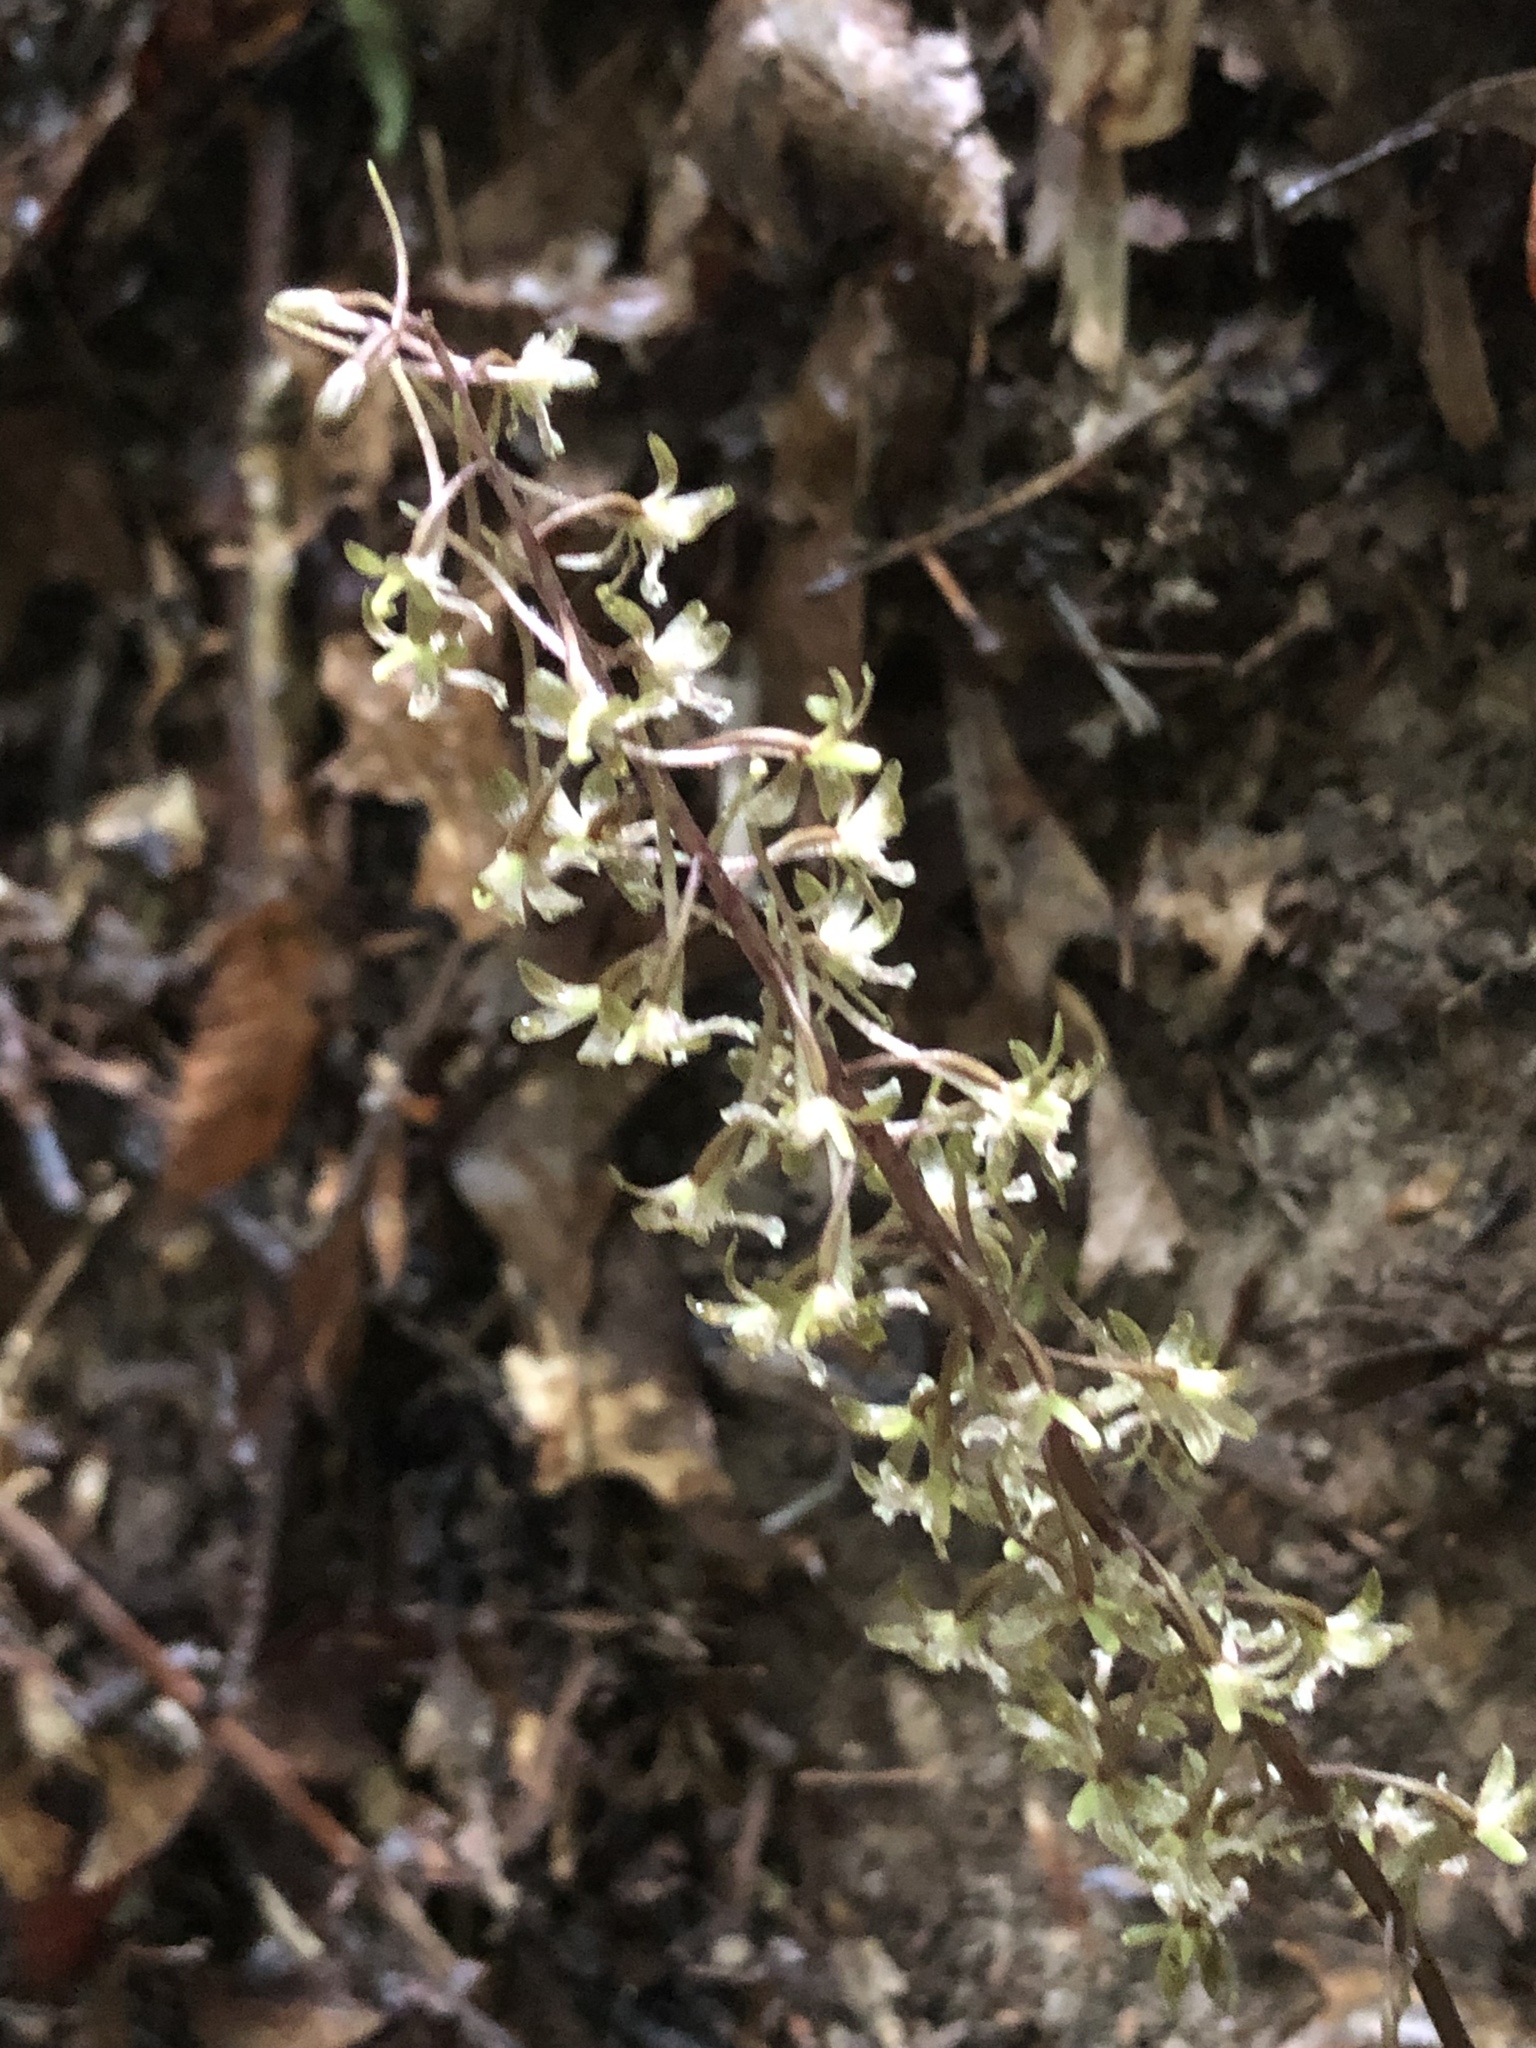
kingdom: Plantae
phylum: Tracheophyta
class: Liliopsida
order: Asparagales
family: Orchidaceae
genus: Tipularia
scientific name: Tipularia discolor
